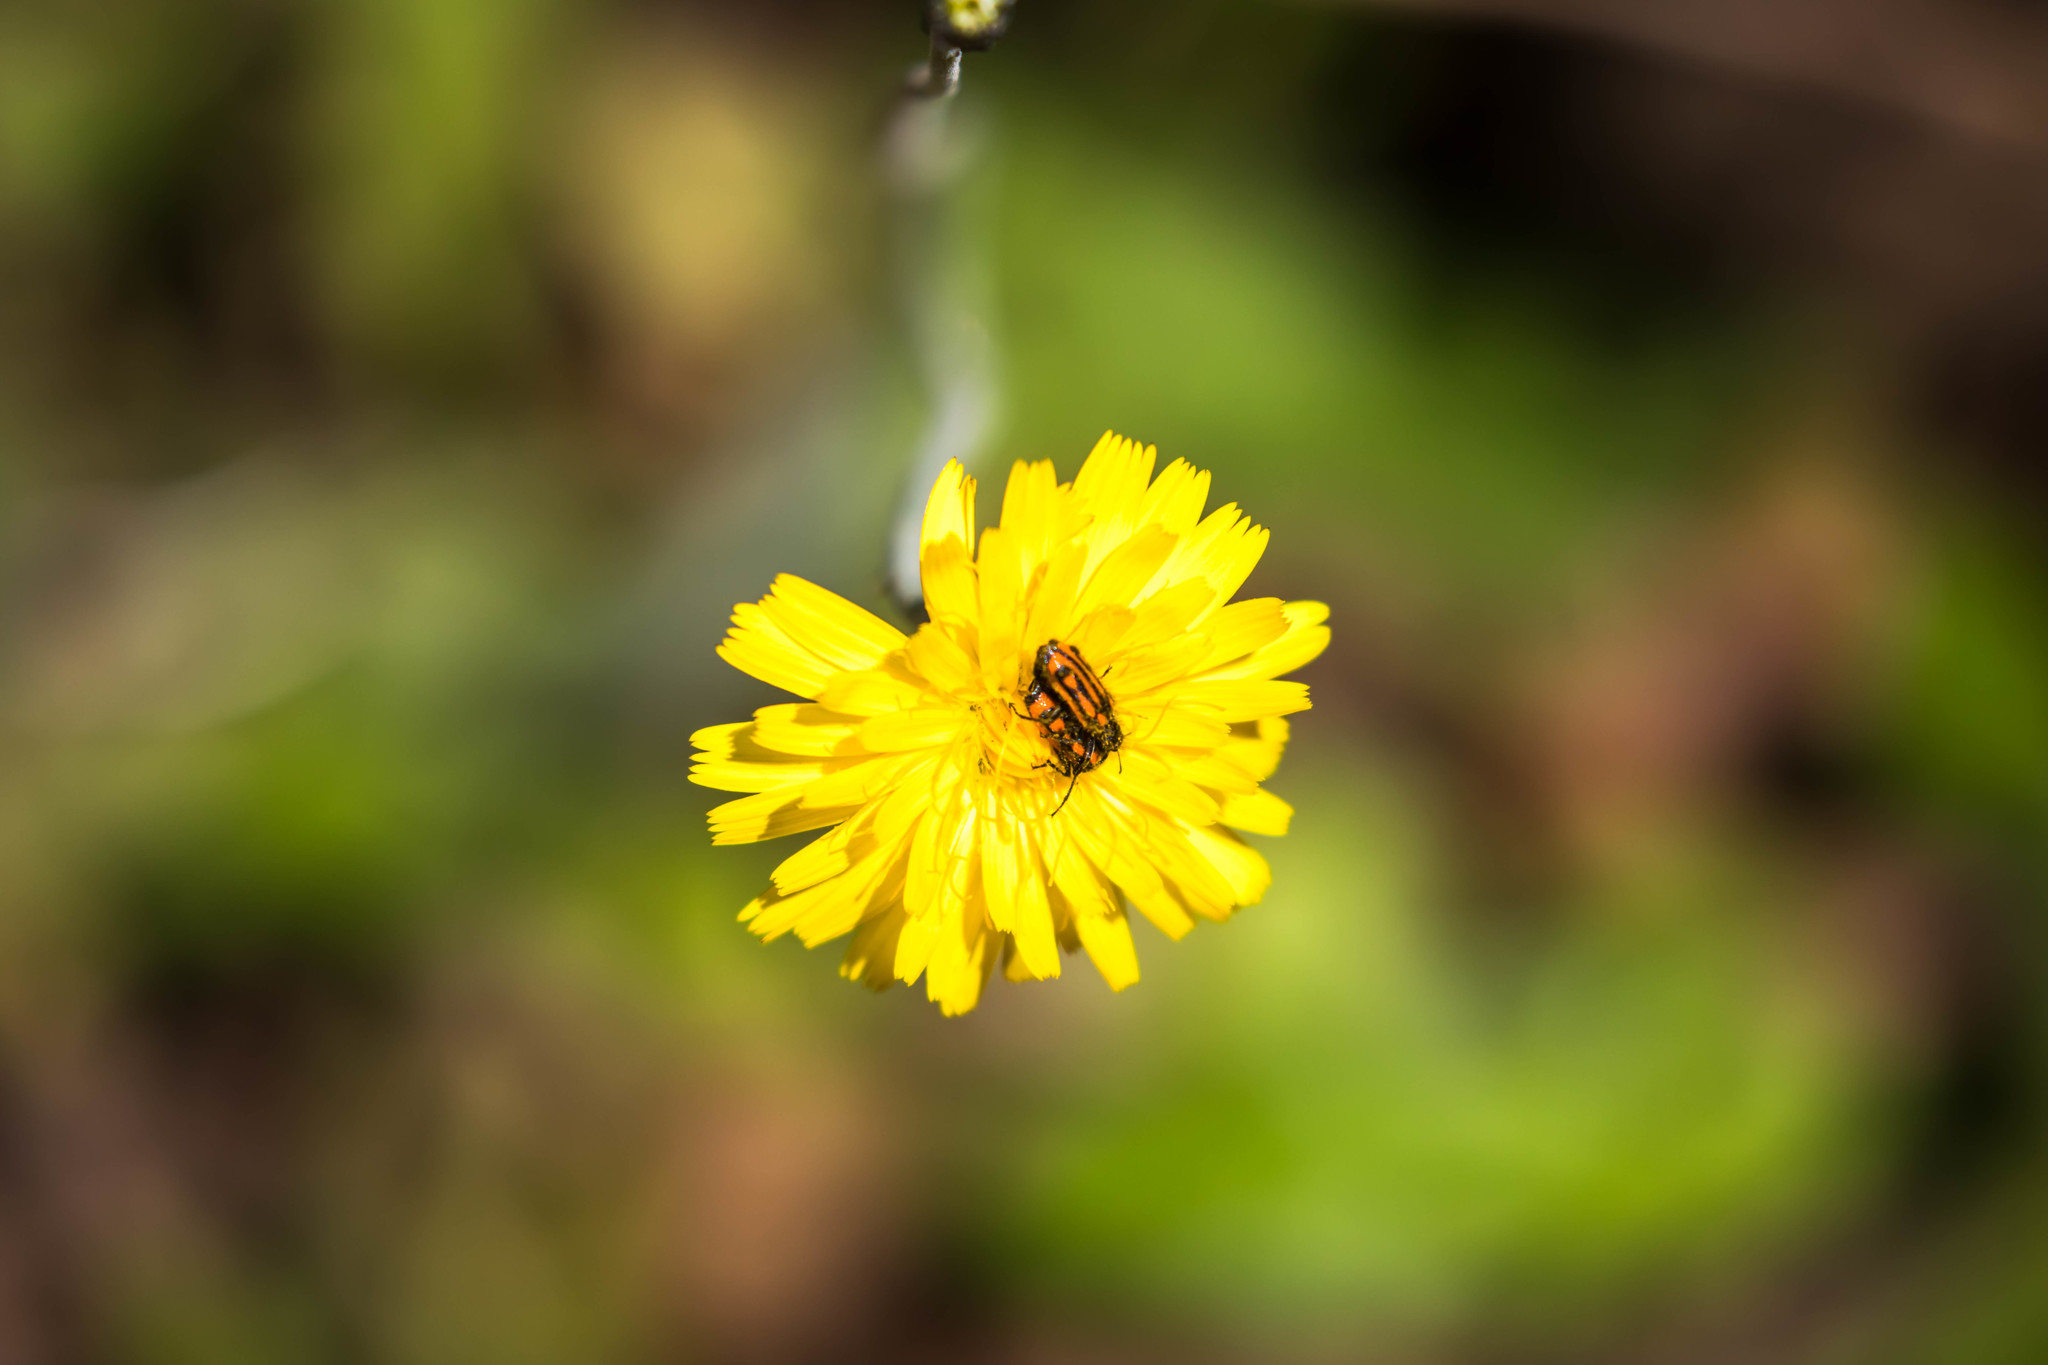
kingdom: Animalia
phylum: Arthropoda
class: Insecta
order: Coleoptera
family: Melyridae
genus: Astylus
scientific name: Astylus
